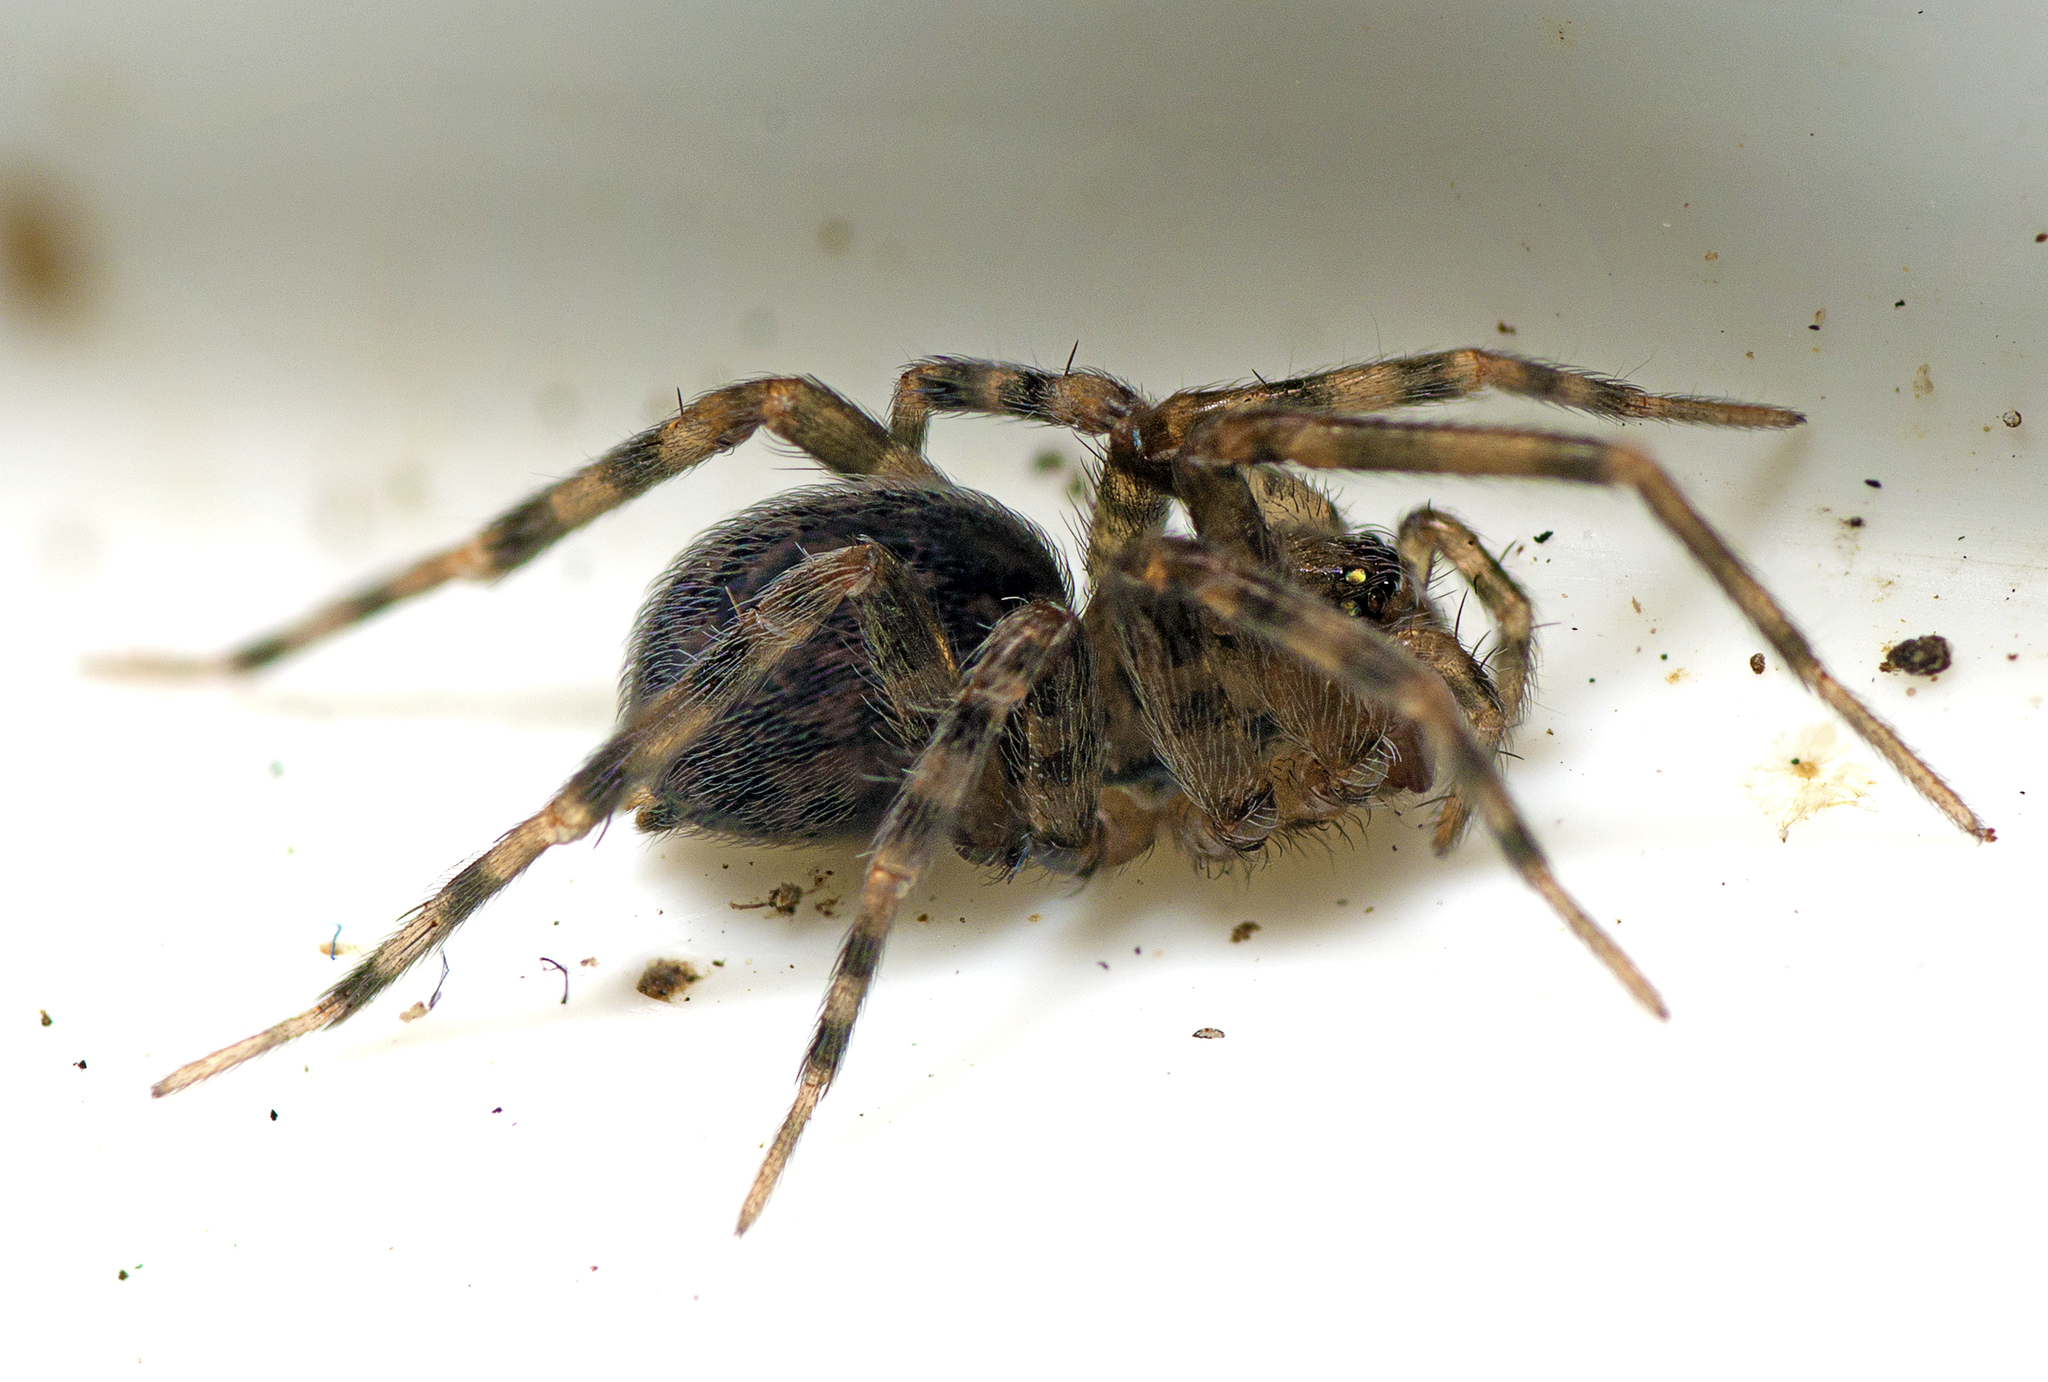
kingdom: Animalia
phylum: Arthropoda
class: Arachnida
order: Araneae
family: Desidae
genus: Barahna
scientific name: Barahna booloumba
